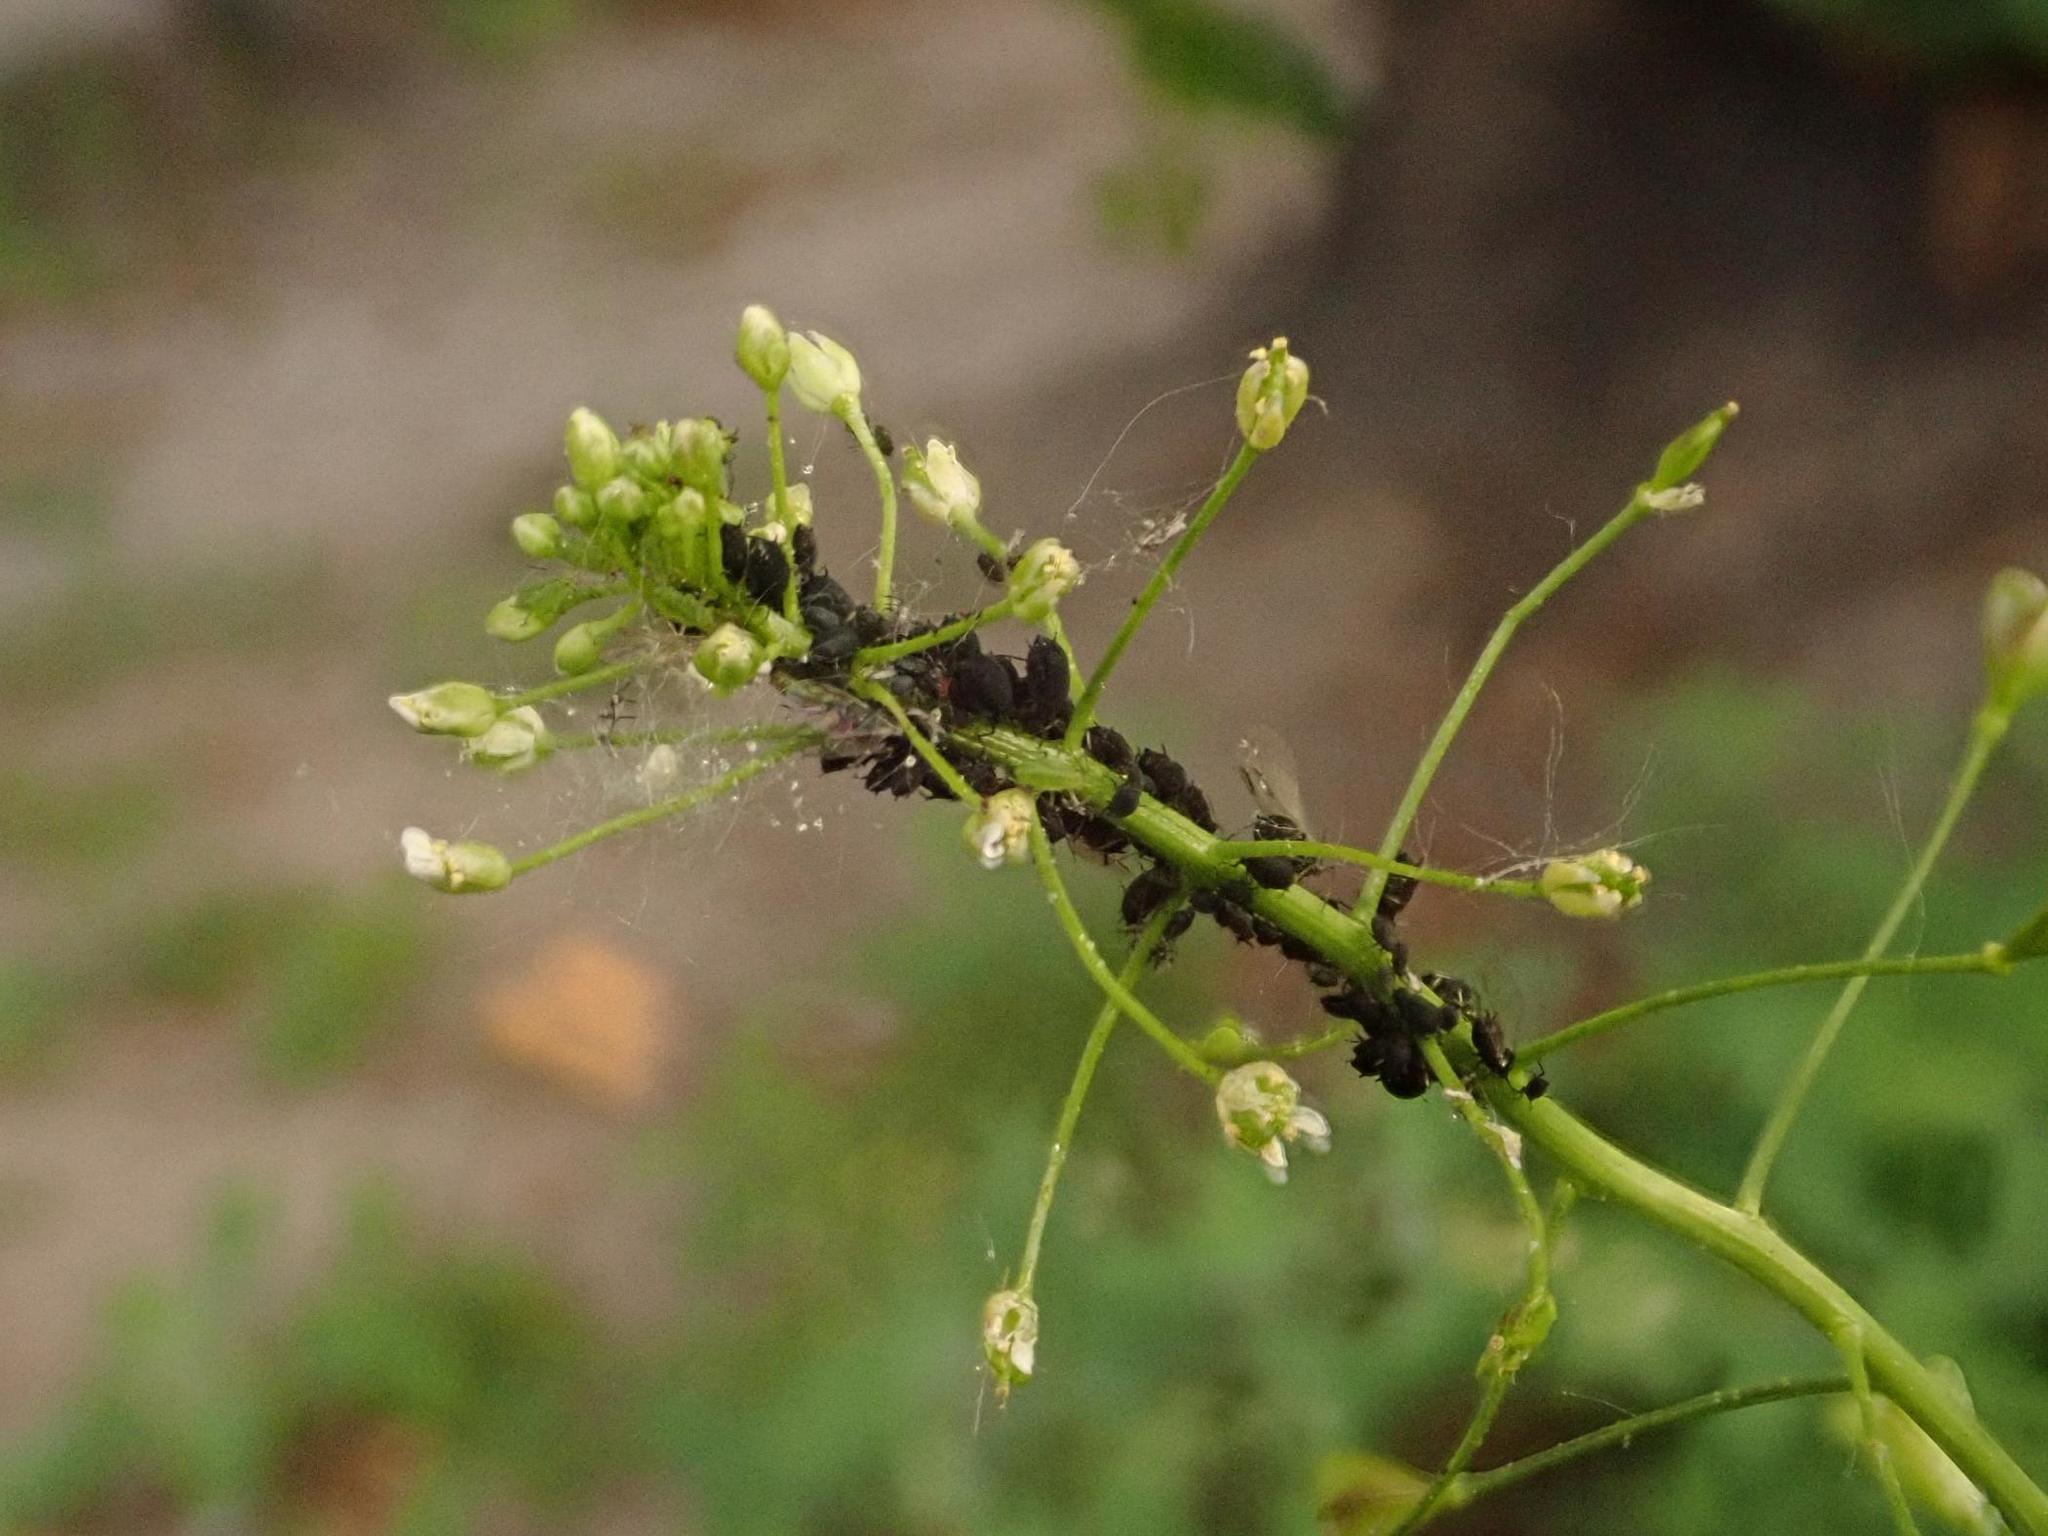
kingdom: Plantae
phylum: Tracheophyta
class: Magnoliopsida
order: Brassicales
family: Brassicaceae
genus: Capsella
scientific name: Capsella bursa-pastoris
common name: Shepherd's purse
